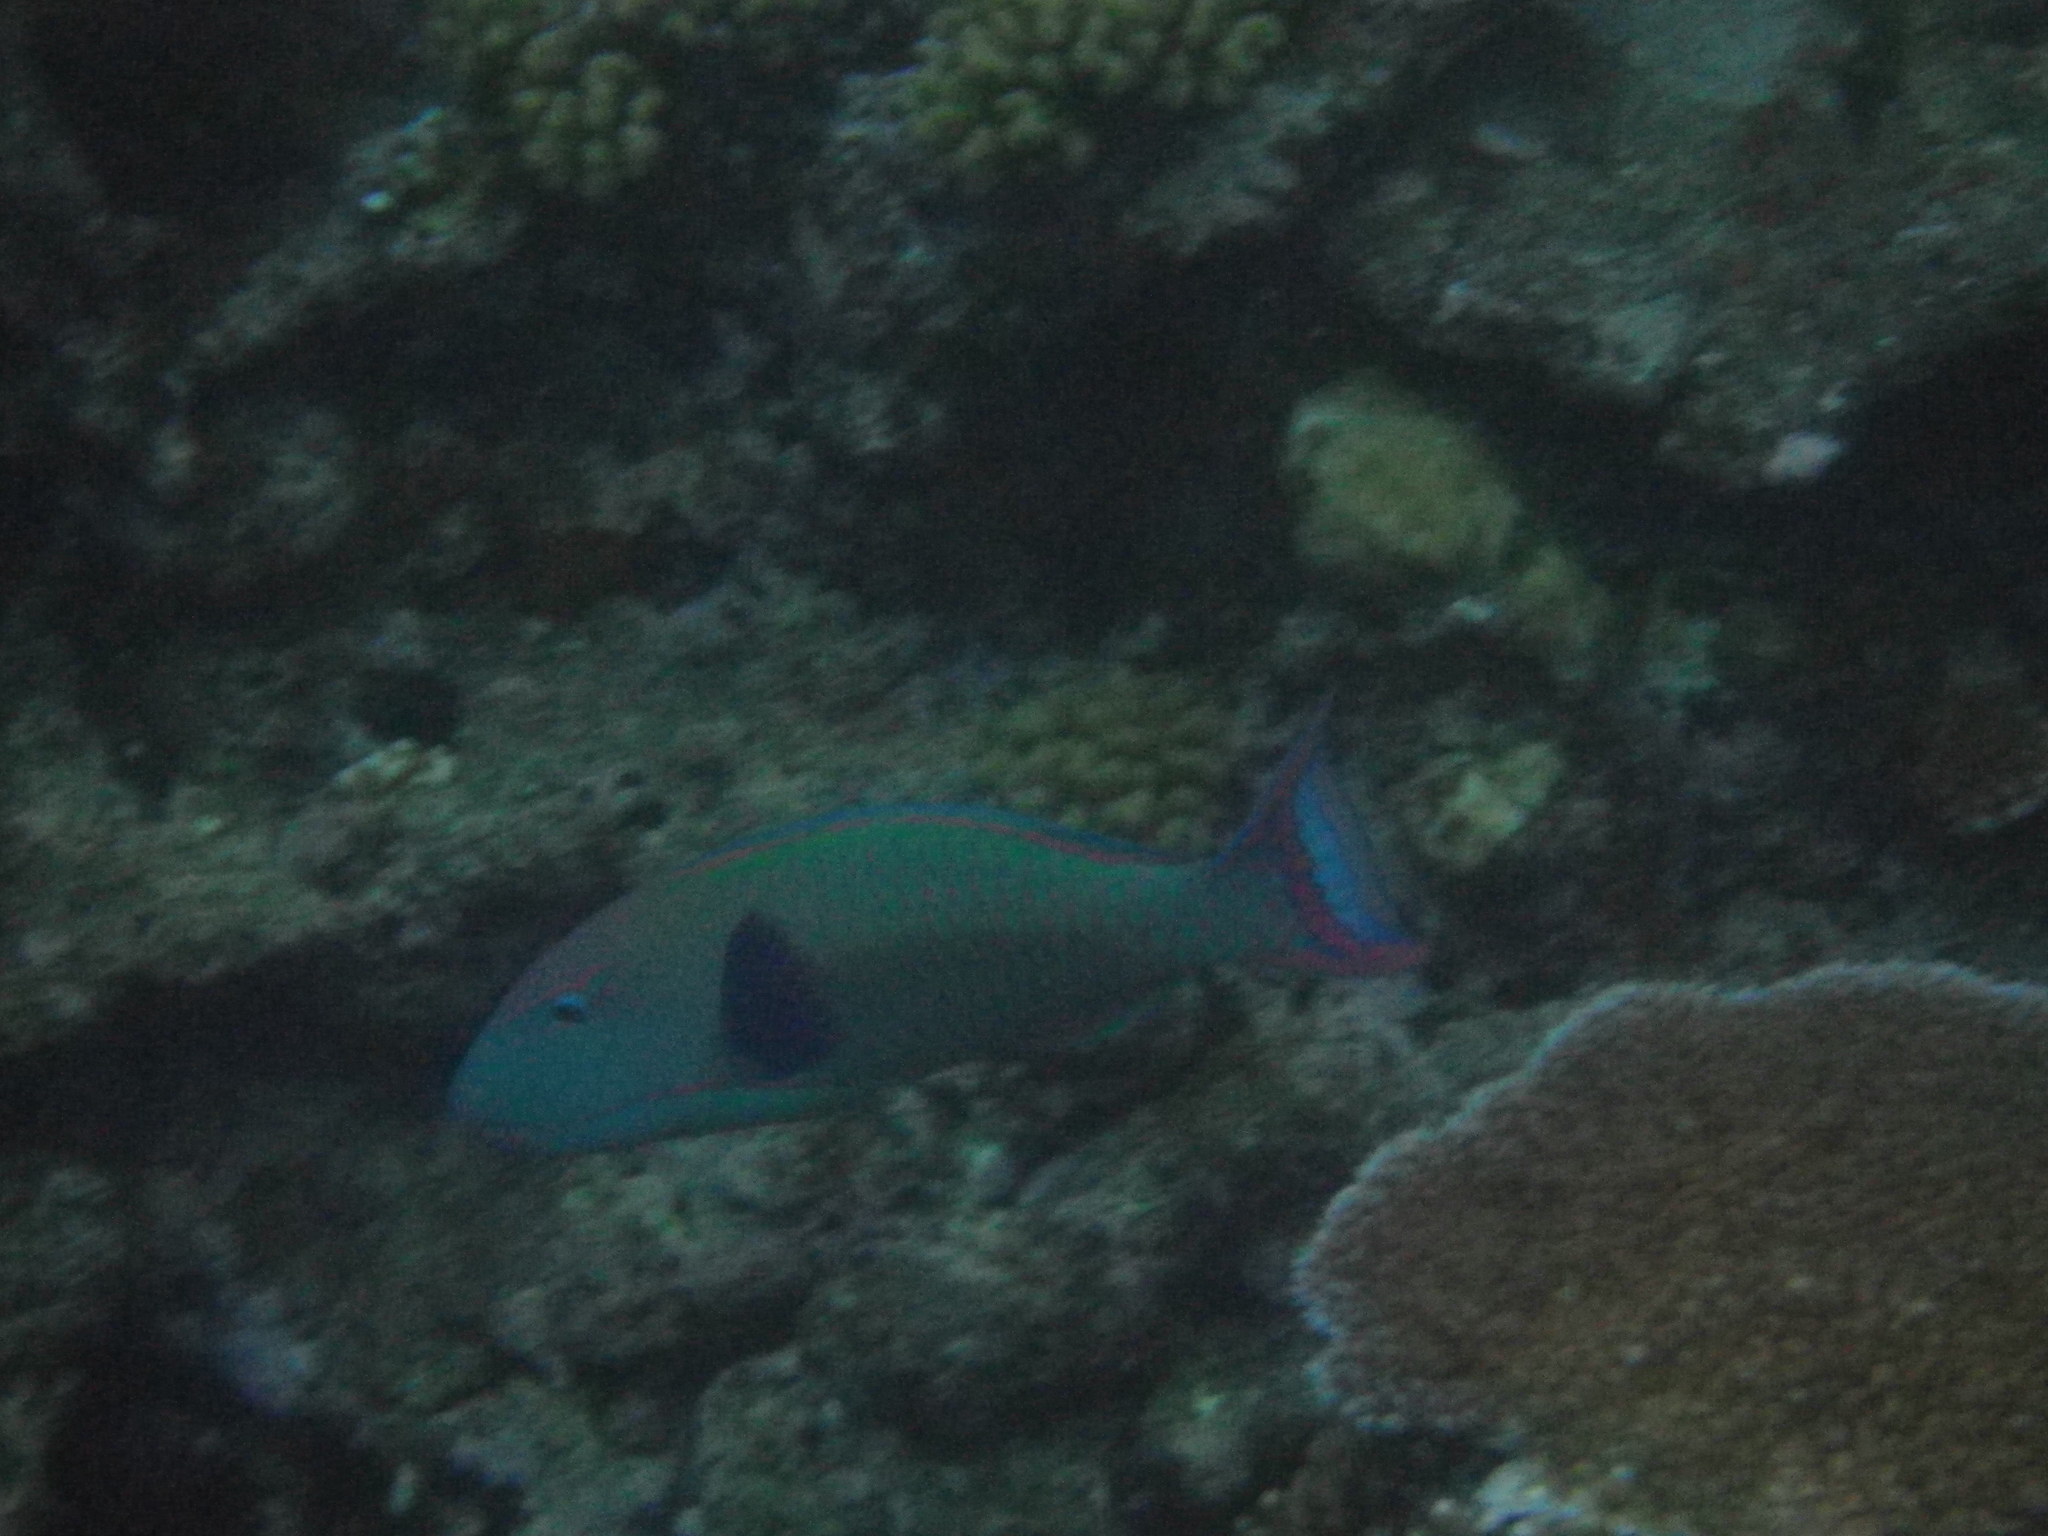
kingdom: Animalia
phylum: Chordata
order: Perciformes
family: Scaridae
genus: Cetoscarus
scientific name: Cetoscarus ocellatus
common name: Bicolor parrotfish
